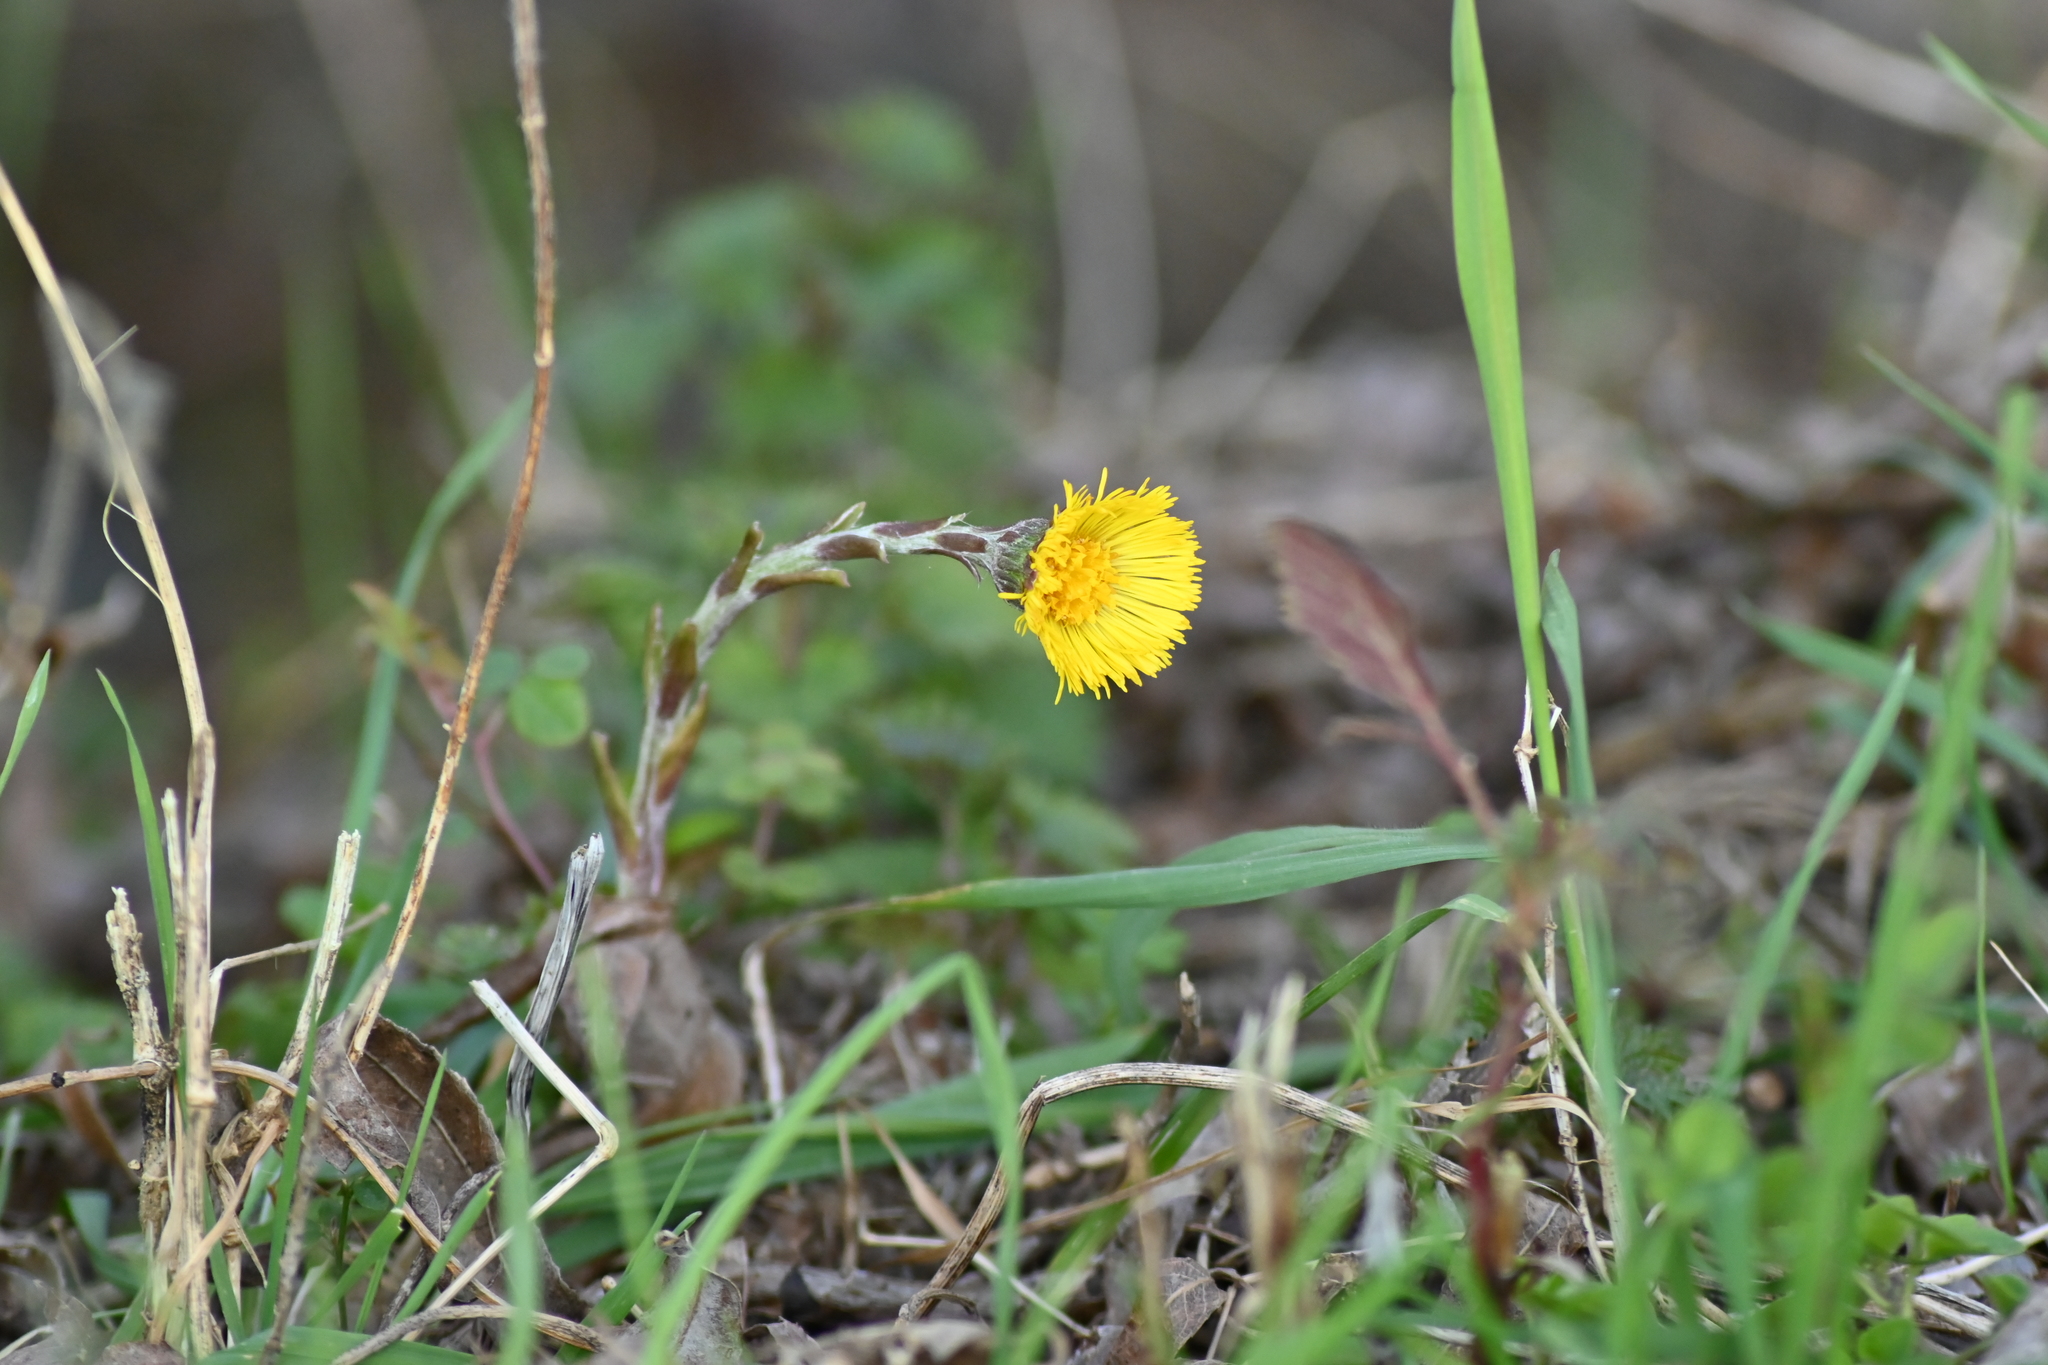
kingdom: Plantae
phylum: Tracheophyta
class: Magnoliopsida
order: Asterales
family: Asteraceae
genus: Tussilago
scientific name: Tussilago farfara
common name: Coltsfoot
